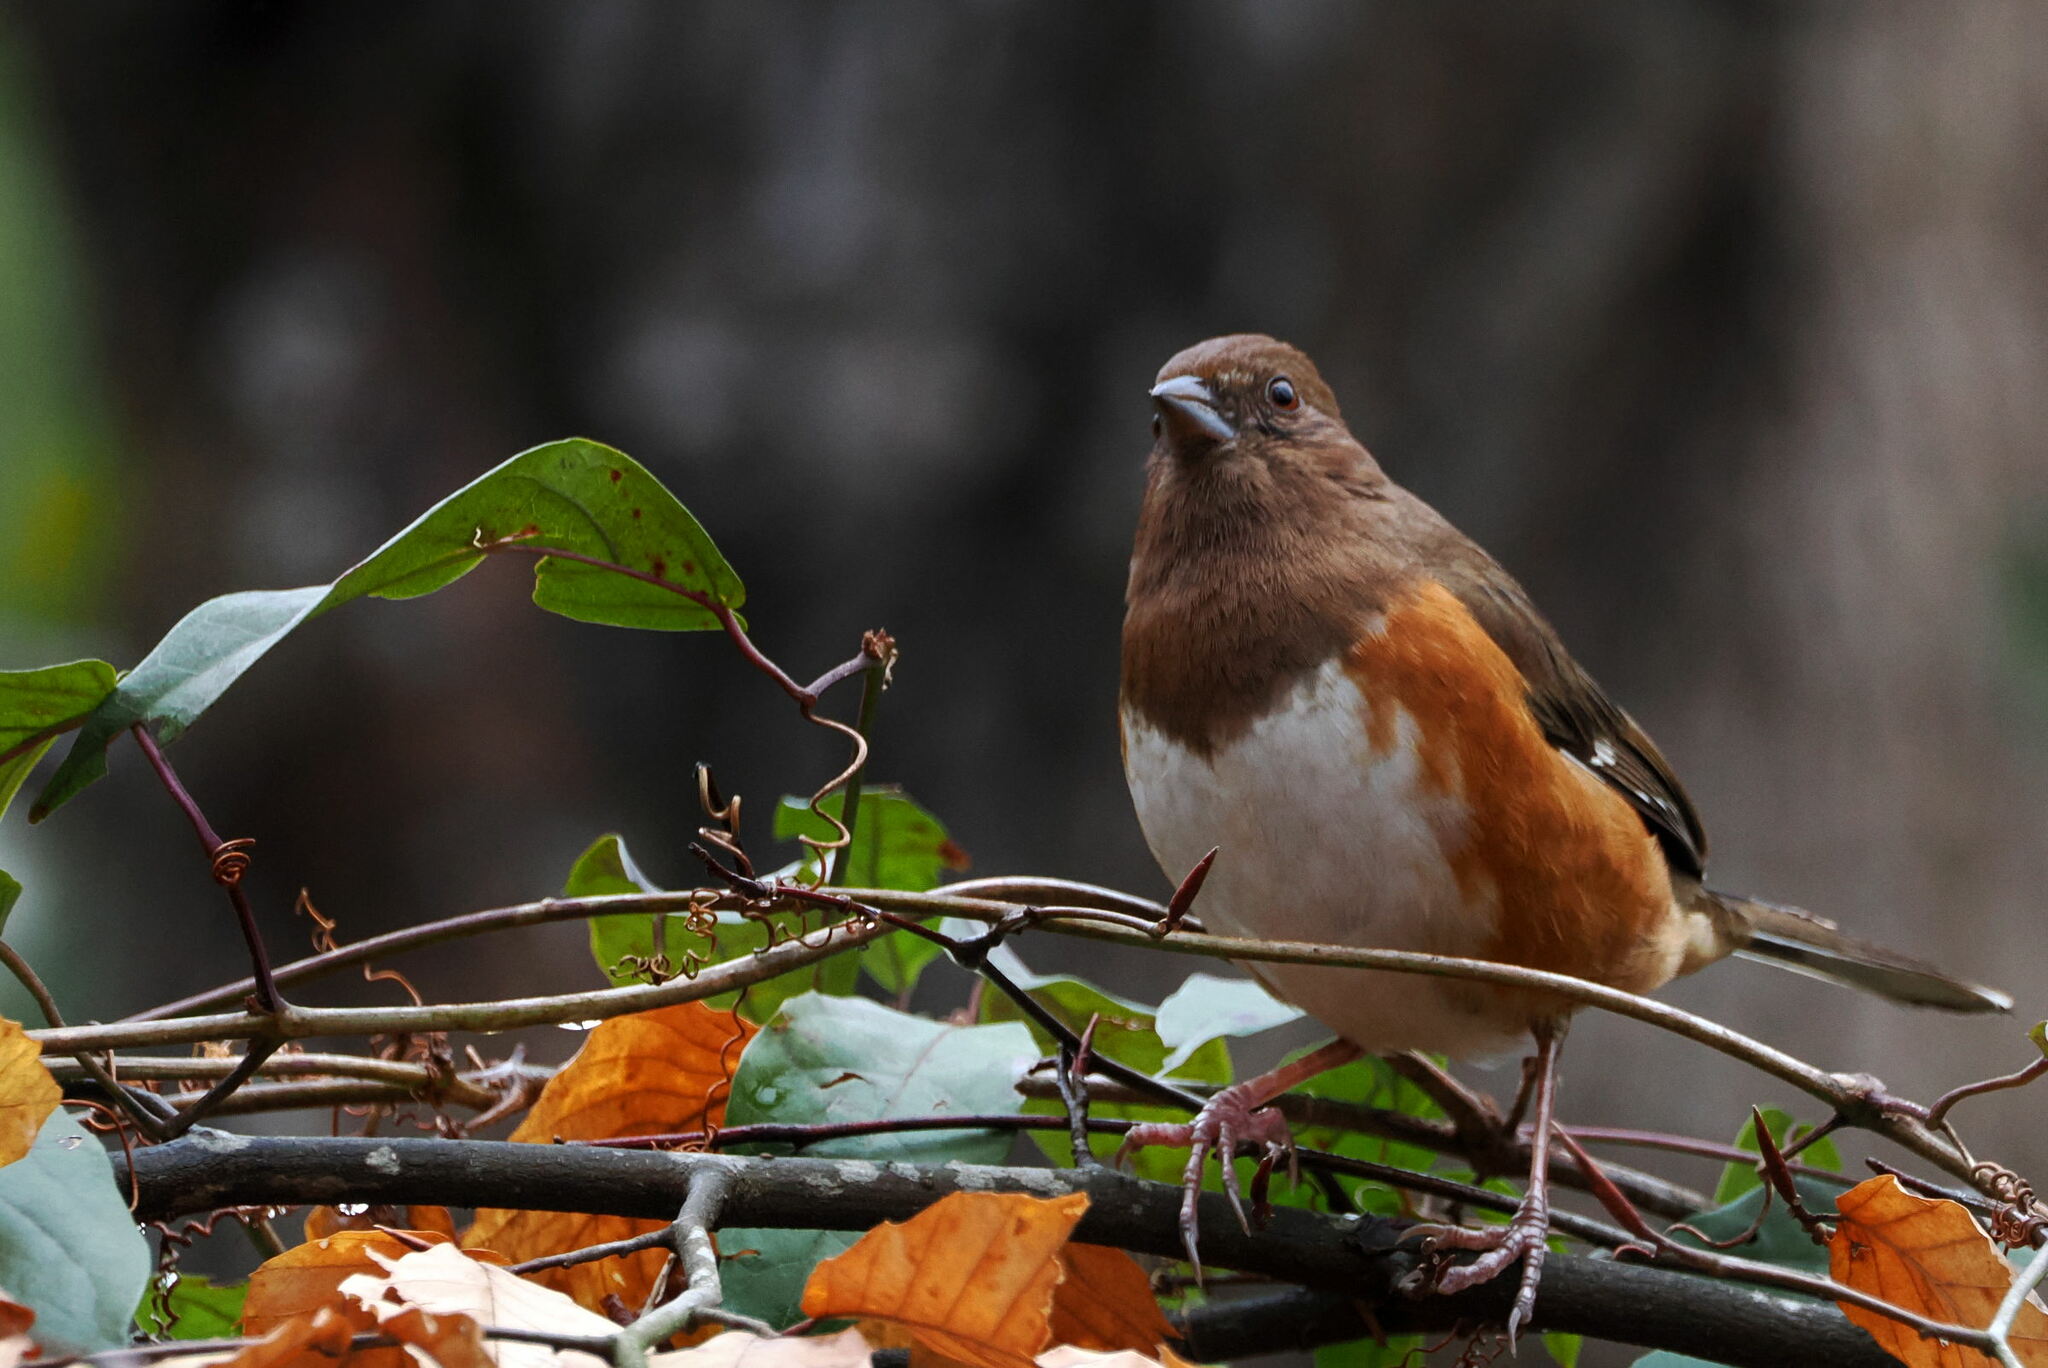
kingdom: Animalia
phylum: Chordata
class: Aves
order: Passeriformes
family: Passerellidae
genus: Pipilo
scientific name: Pipilo erythrophthalmus
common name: Eastern towhee
